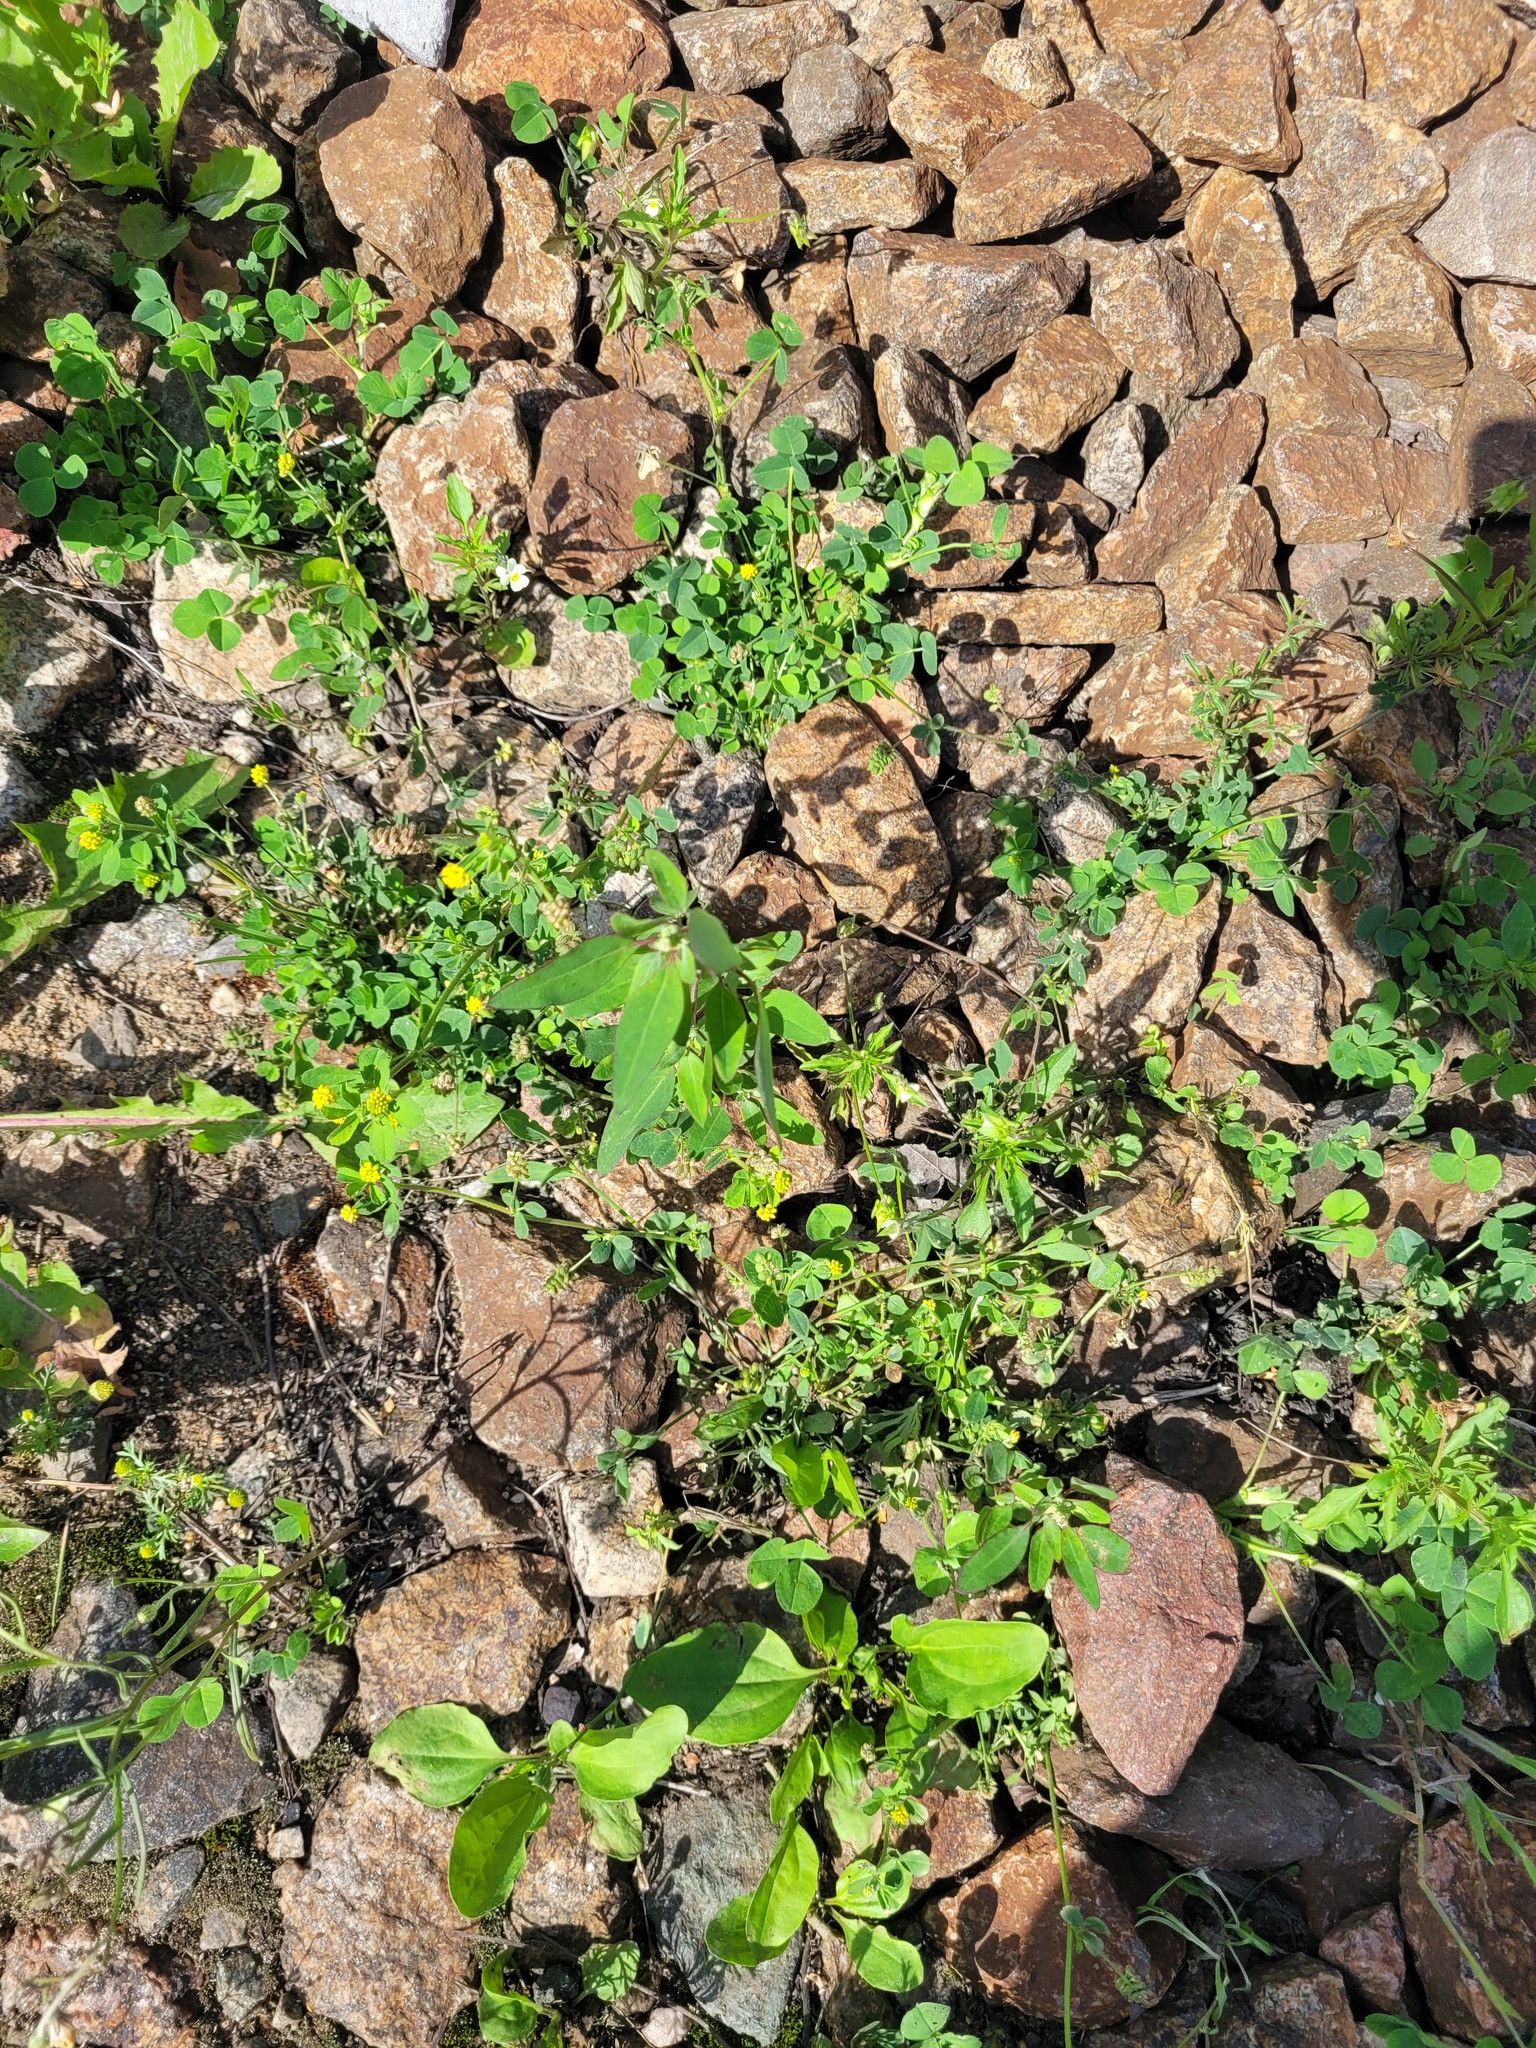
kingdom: Plantae
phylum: Tracheophyta
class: Magnoliopsida
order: Caryophyllales
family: Amaranthaceae
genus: Chenopodium
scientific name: Chenopodium betaceum
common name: Striped goosefoot
